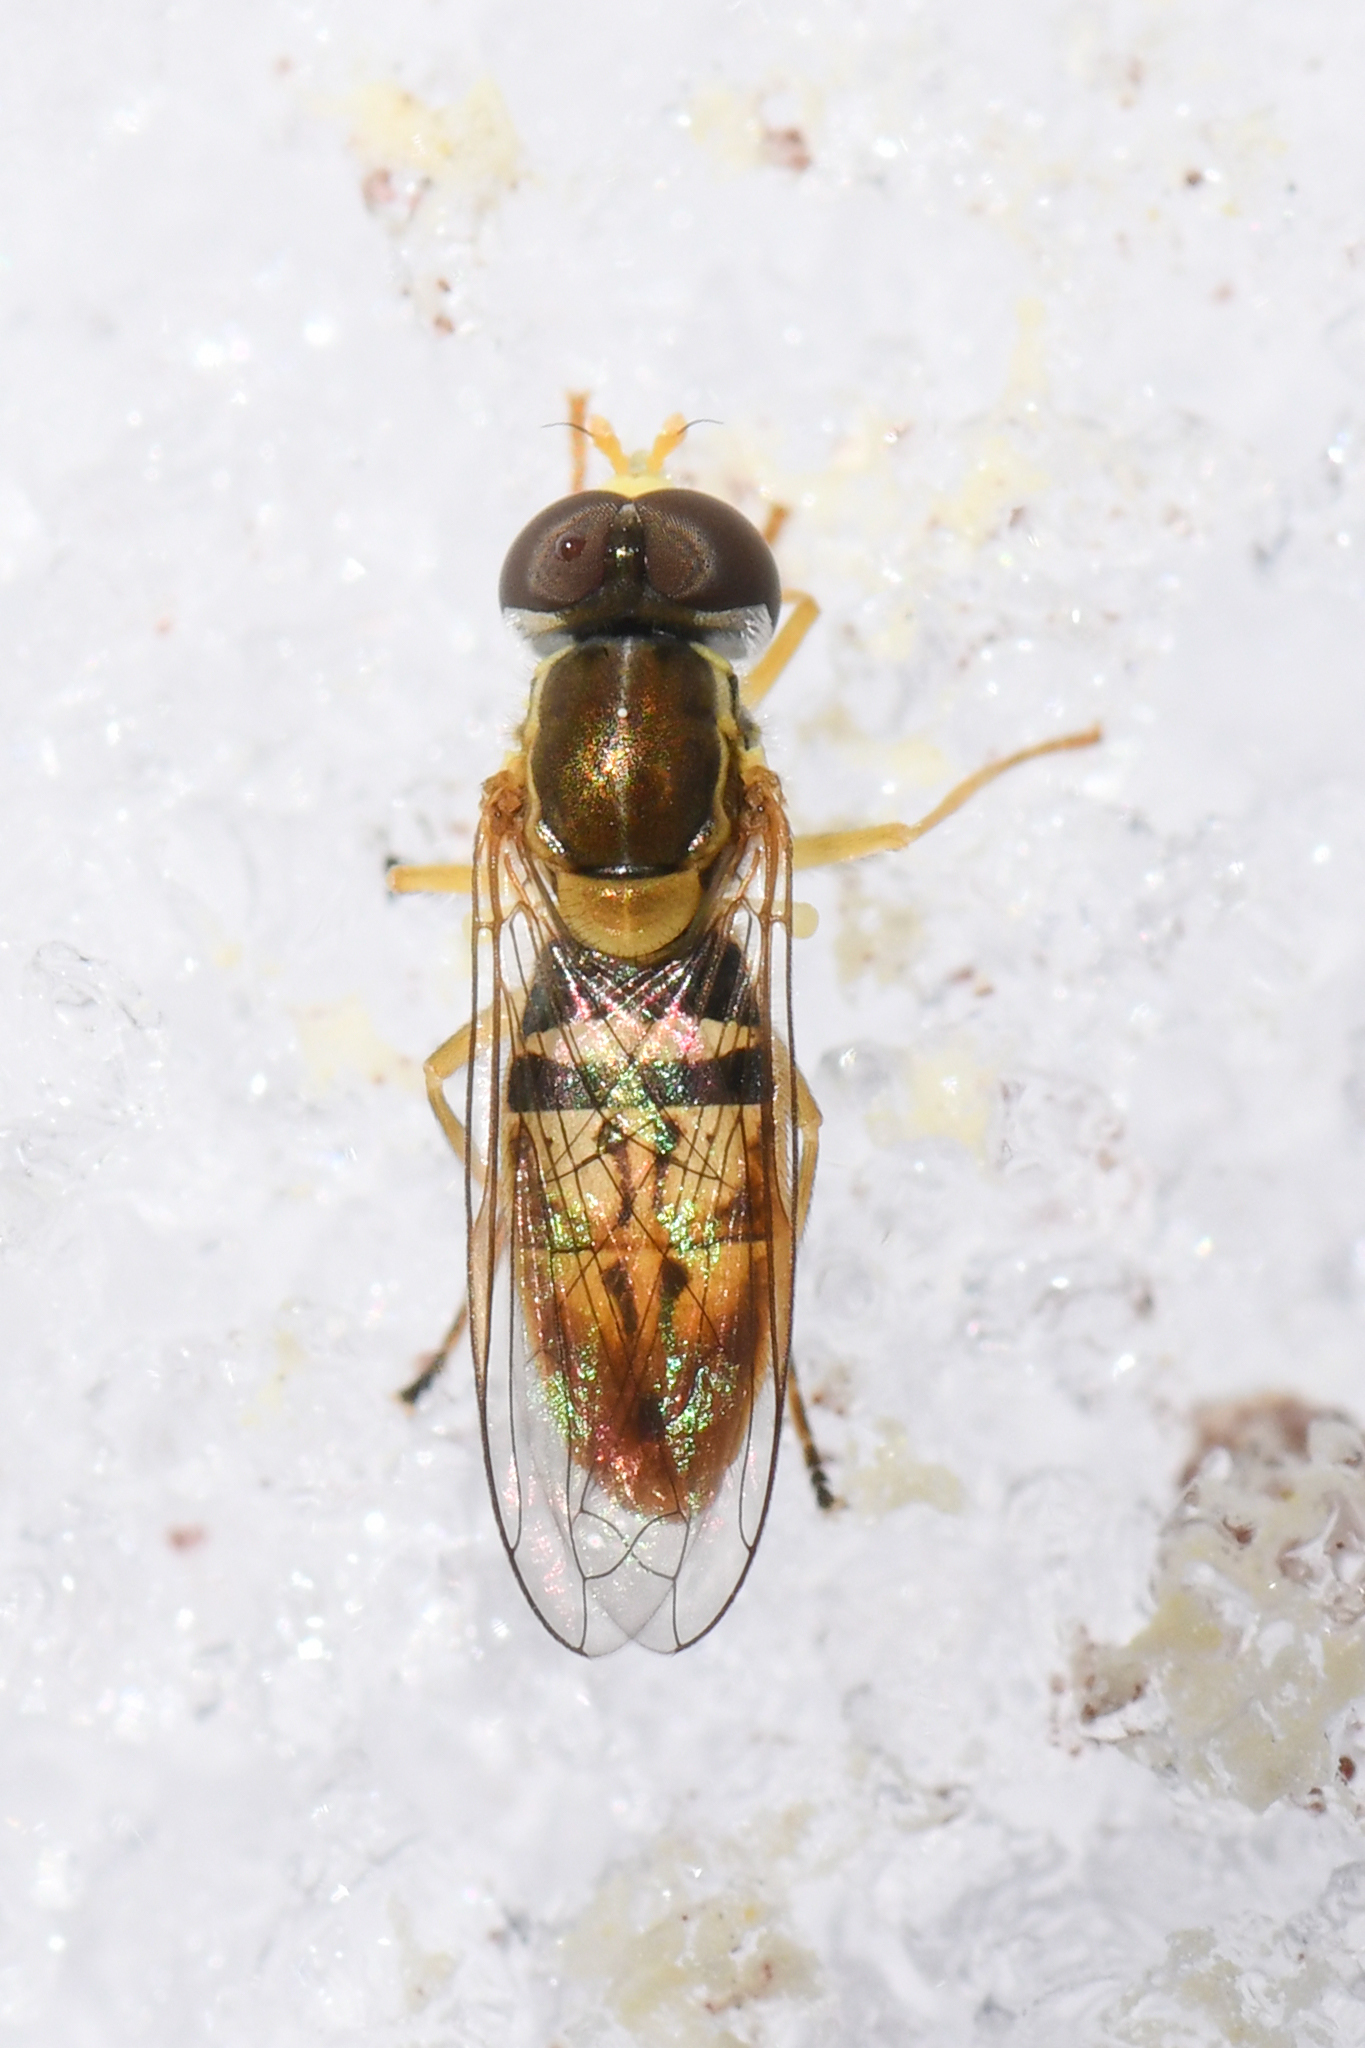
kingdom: Animalia
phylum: Arthropoda
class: Insecta
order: Diptera
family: Syrphidae
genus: Toxomerus
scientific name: Toxomerus marginatus
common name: Syrphid fly
